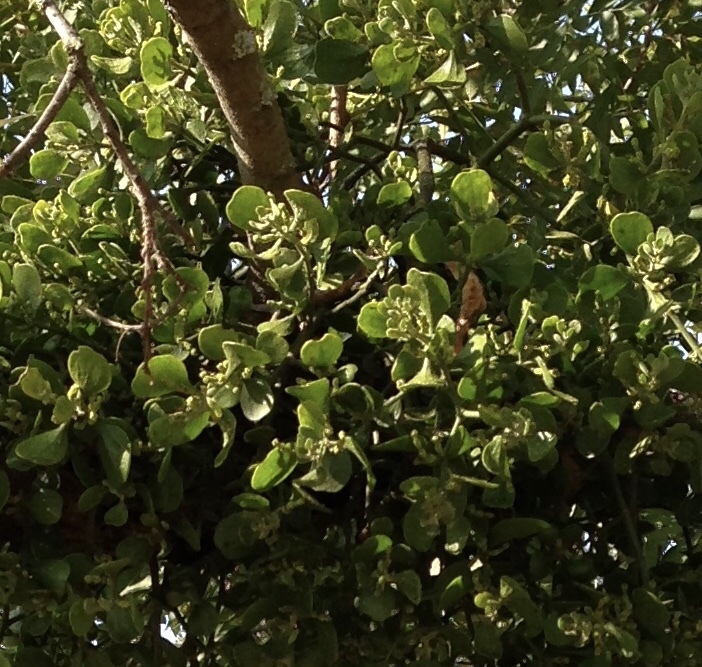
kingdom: Plantae
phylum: Tracheophyta
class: Magnoliopsida
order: Santalales
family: Viscaceae
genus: Phoradendron
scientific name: Phoradendron leucarpum
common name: Pacific mistletoe
